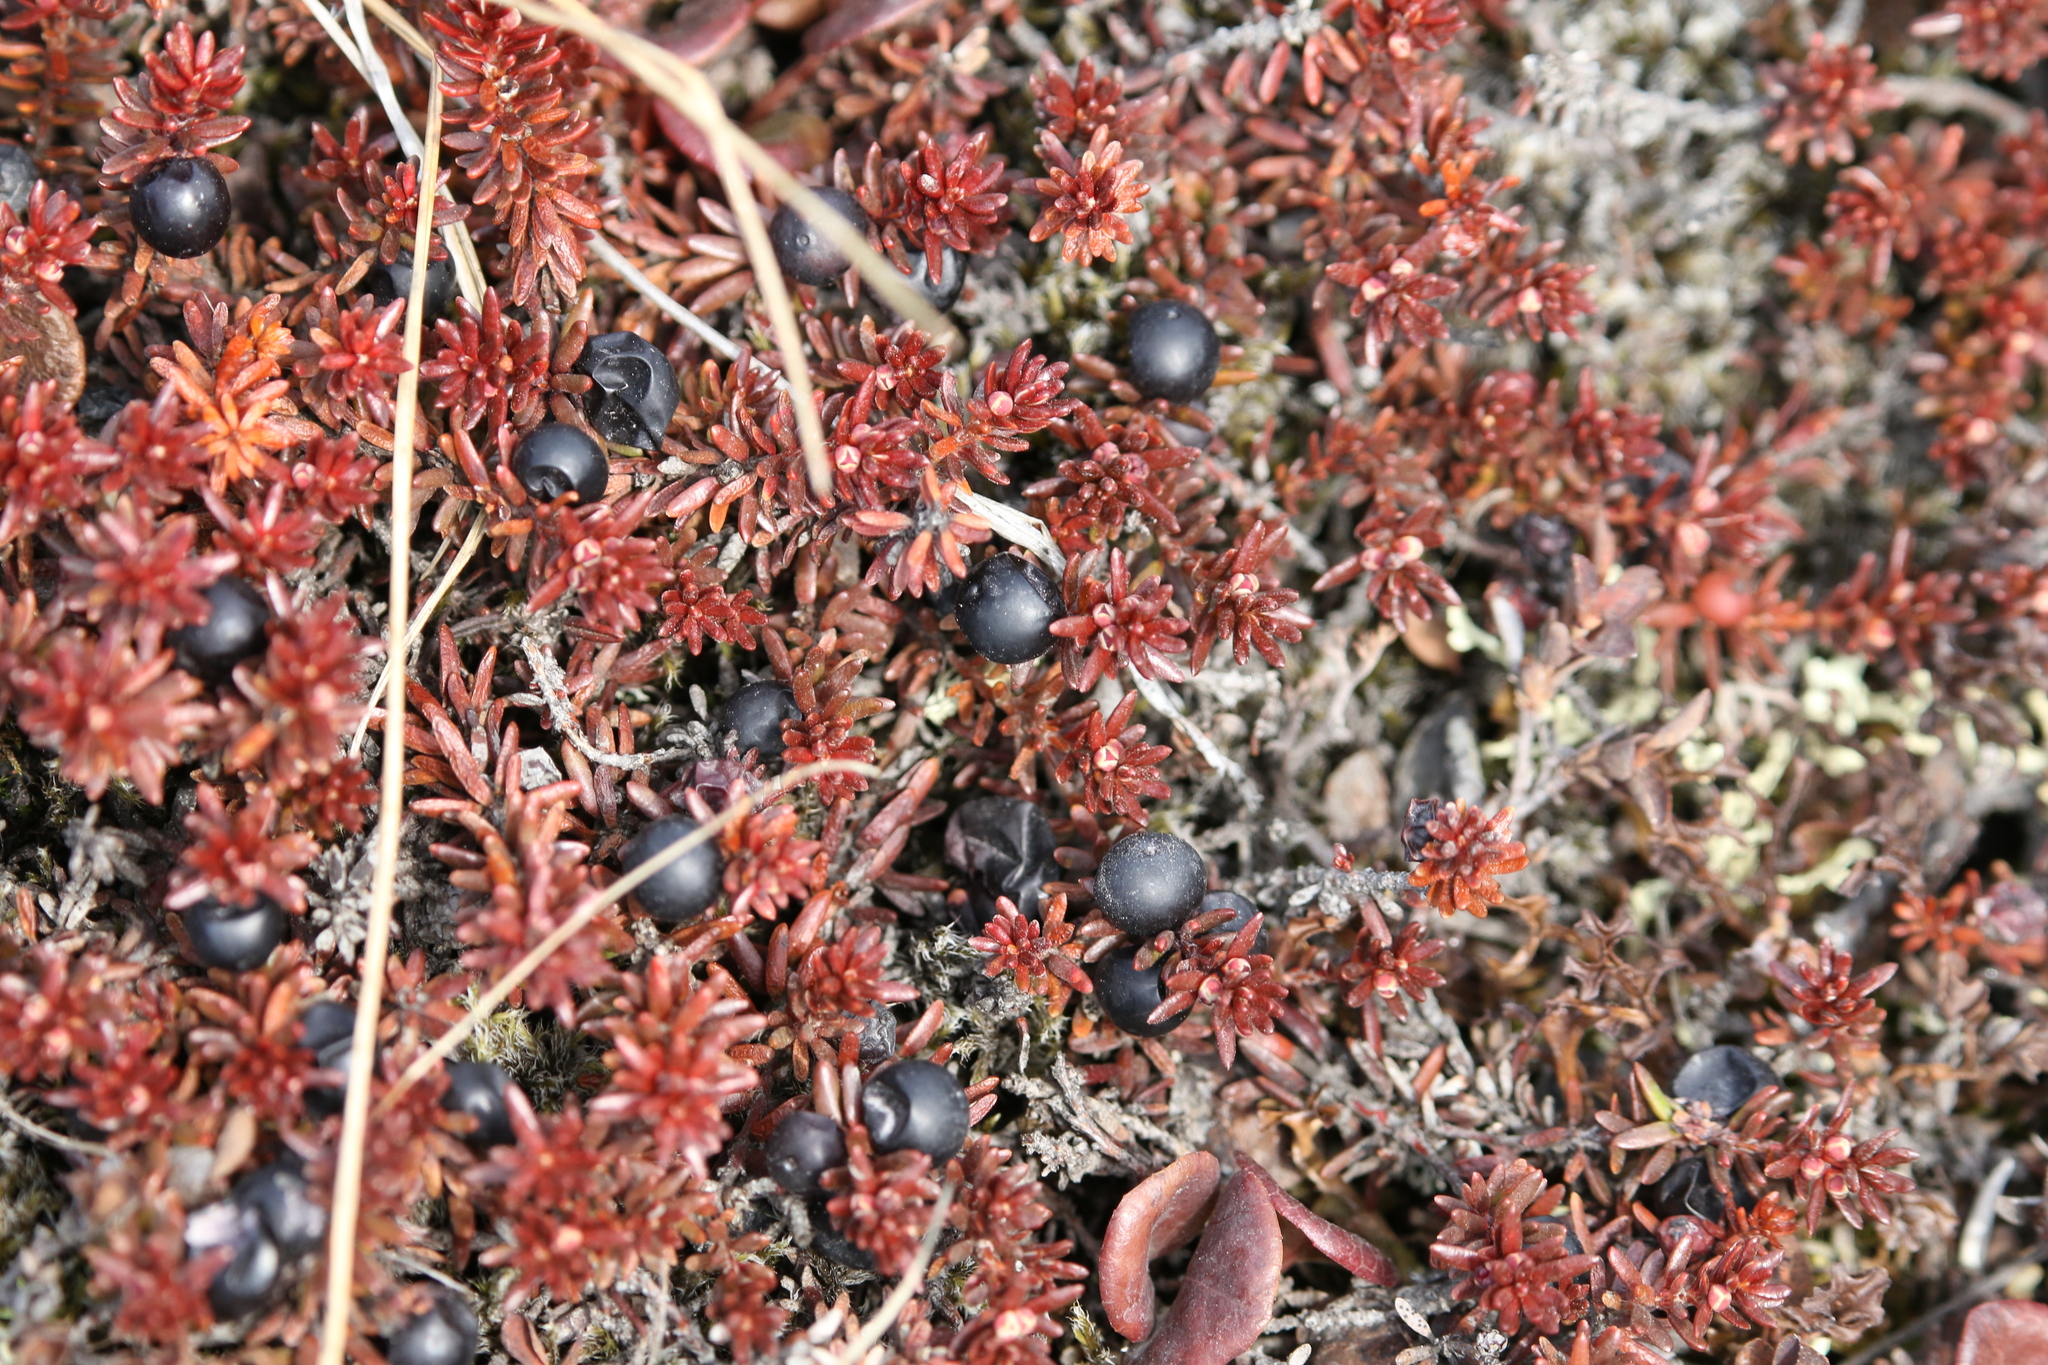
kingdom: Plantae
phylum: Tracheophyta
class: Magnoliopsida
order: Ericales
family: Ericaceae
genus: Empetrum
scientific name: Empetrum nigrum
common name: Black crowberry
